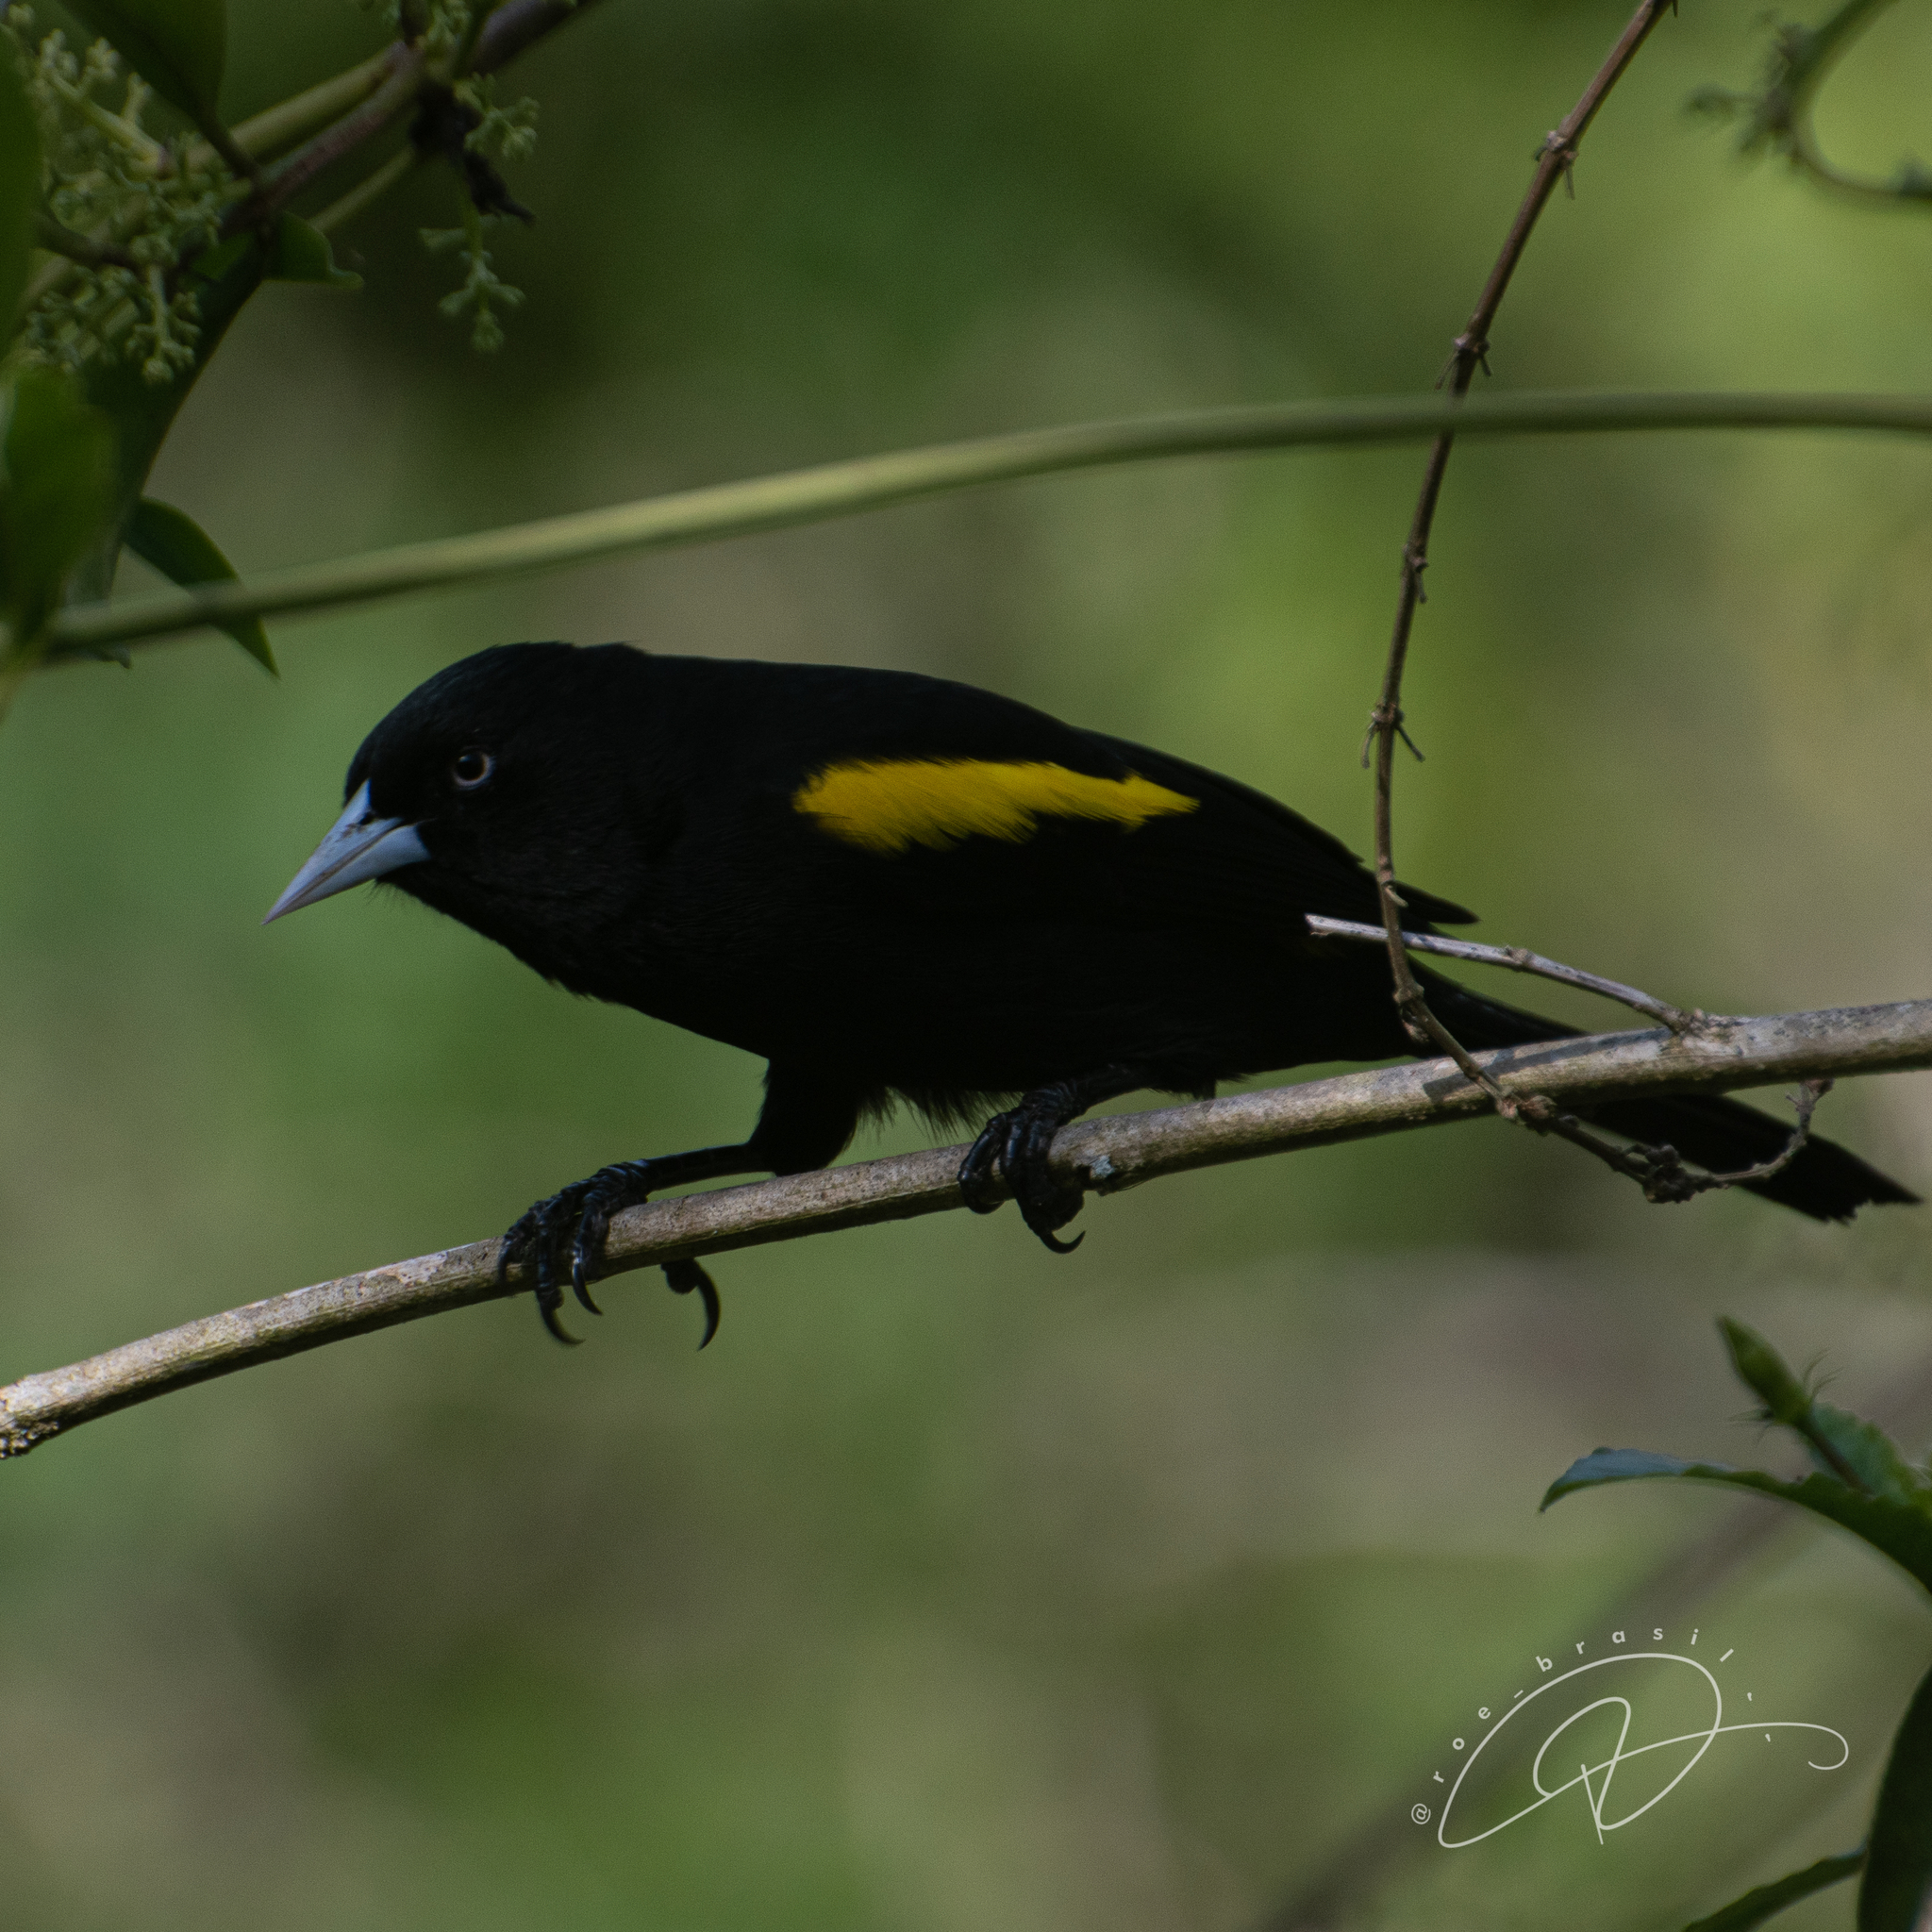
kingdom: Animalia
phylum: Chordata
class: Aves
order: Passeriformes
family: Icteridae
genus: Cacicus
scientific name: Cacicus chrysopterus
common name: Golden-winged cacique
